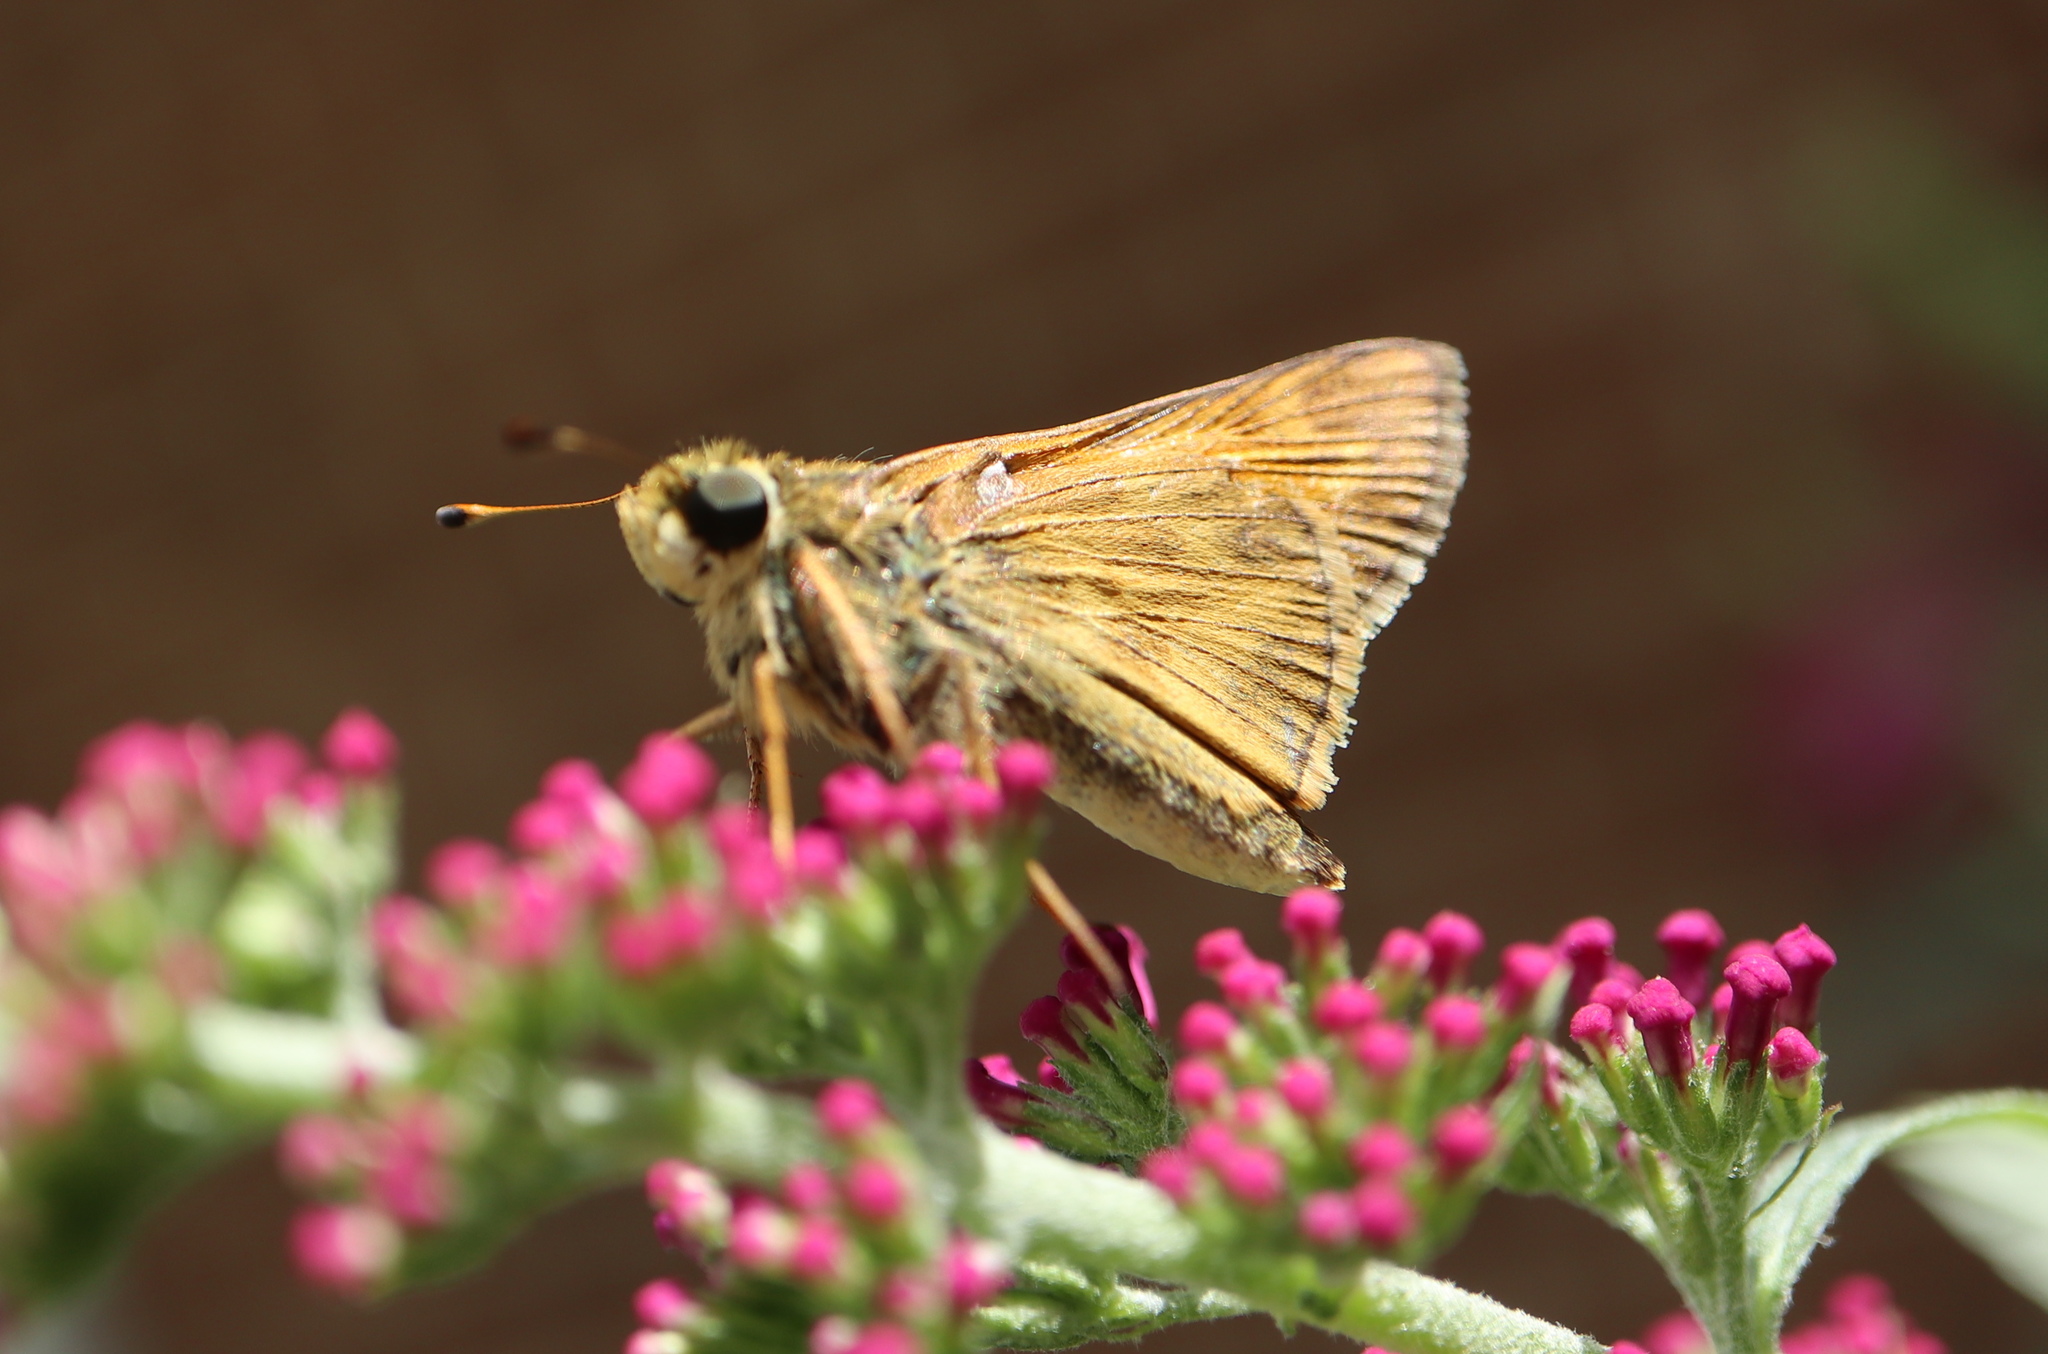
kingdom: Animalia
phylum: Arthropoda
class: Insecta
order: Lepidoptera
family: Hesperiidae
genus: Atalopedes
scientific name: Atalopedes
